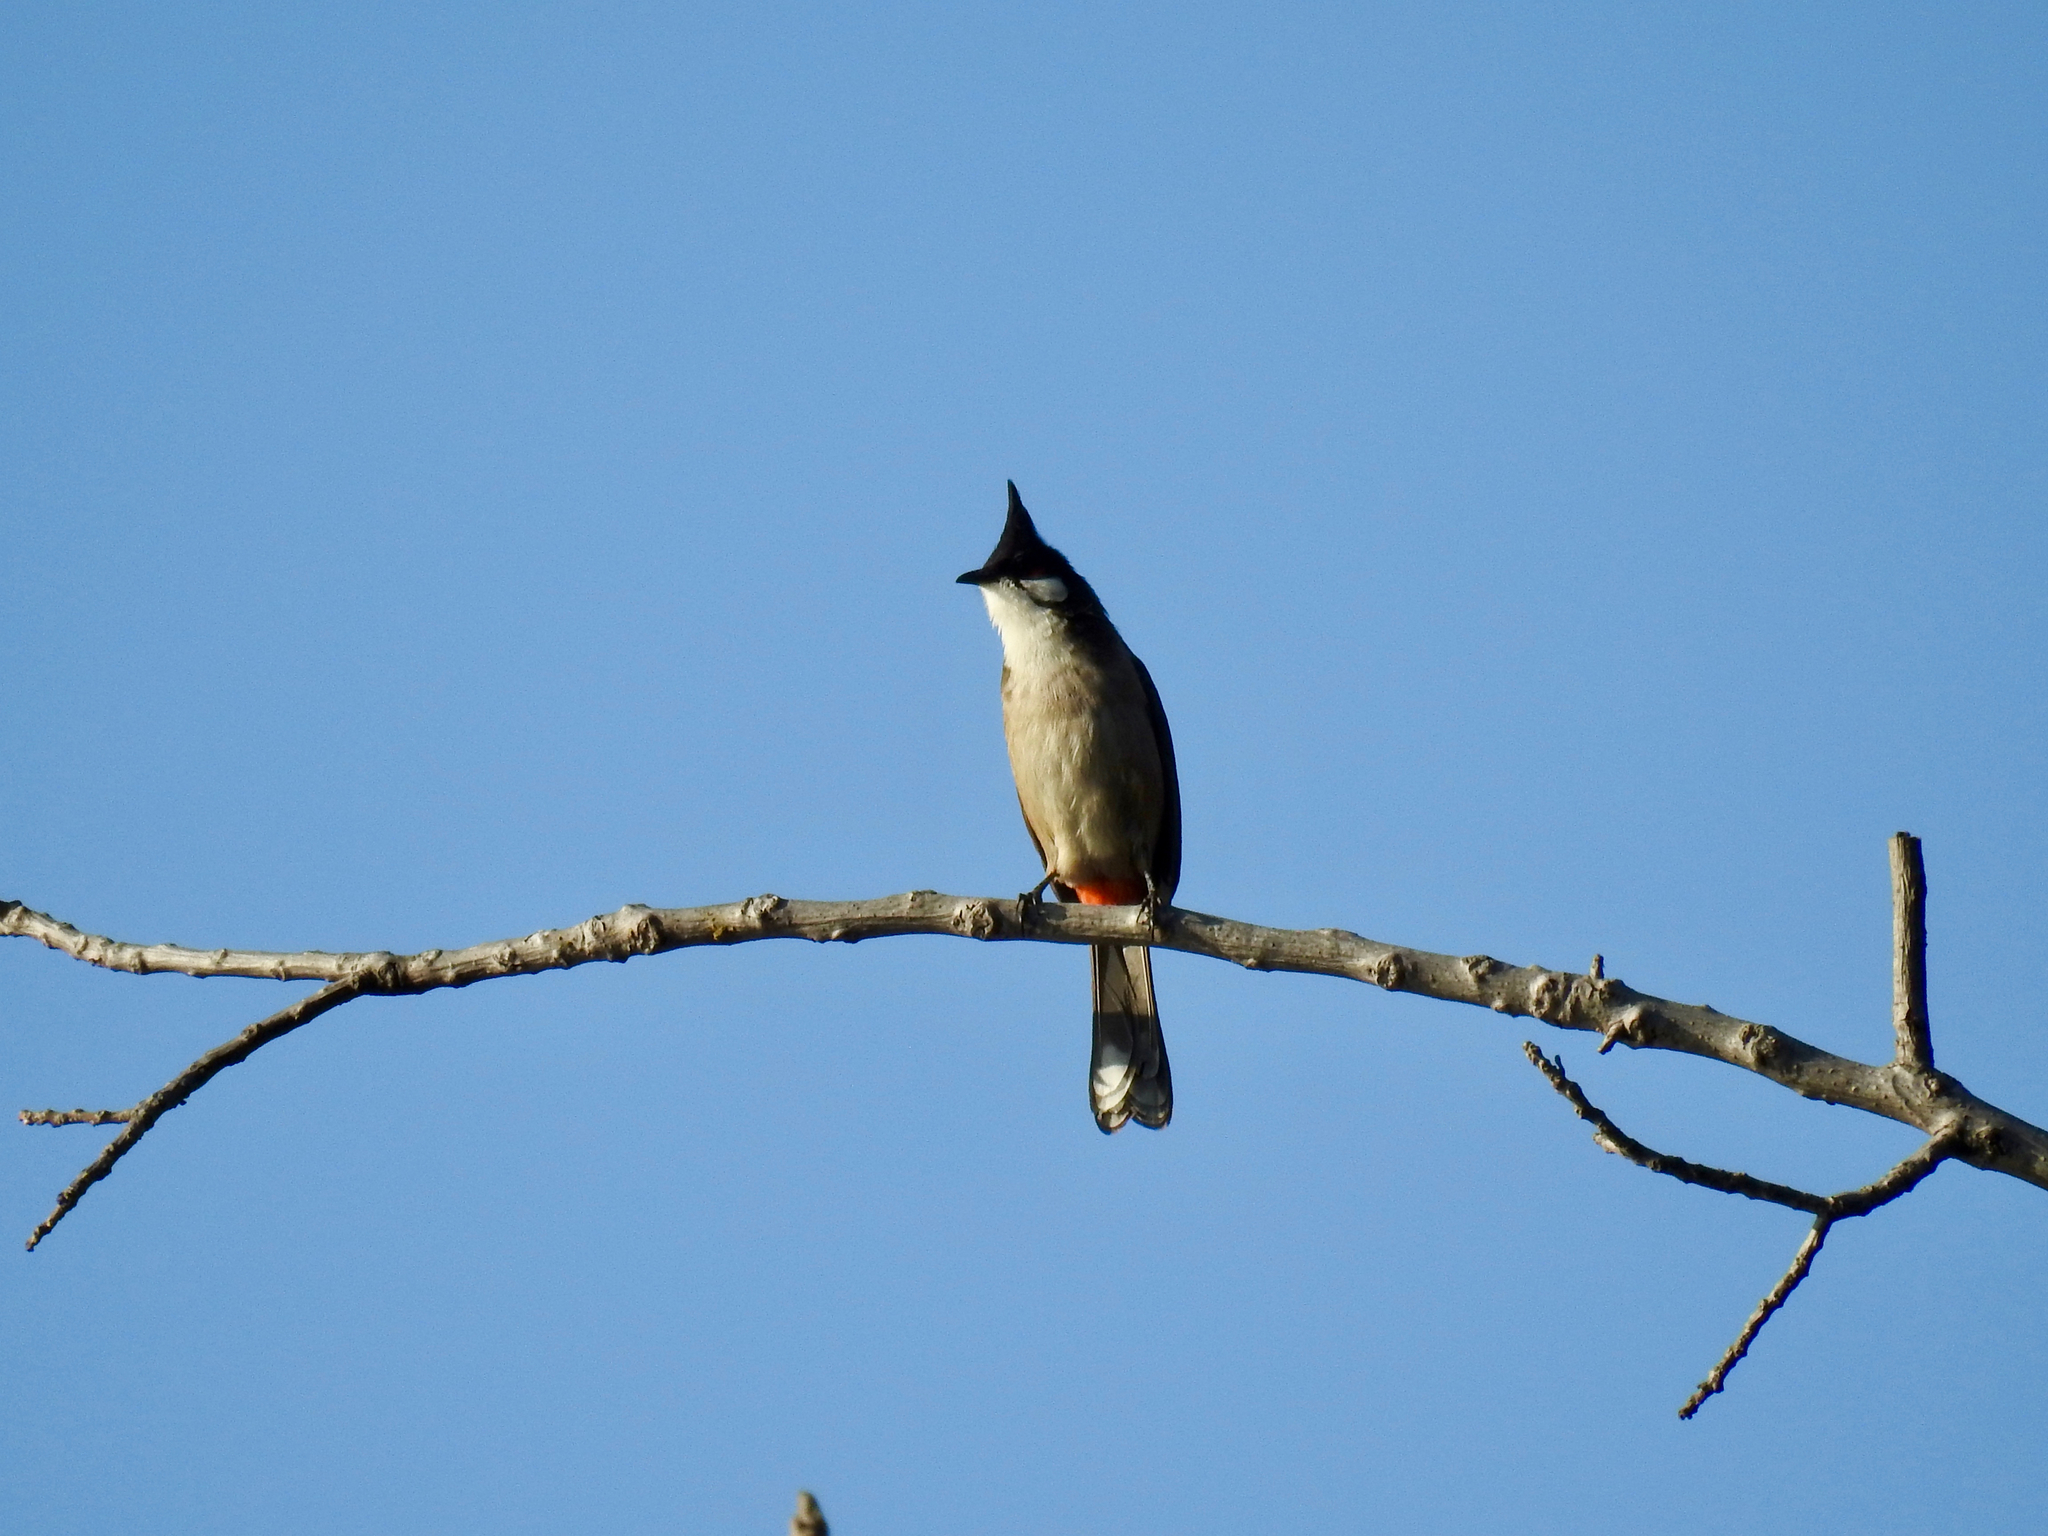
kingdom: Animalia
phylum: Chordata
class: Aves
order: Passeriformes
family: Pycnonotidae
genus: Pycnonotus
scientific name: Pycnonotus jocosus
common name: Red-whiskered bulbul
